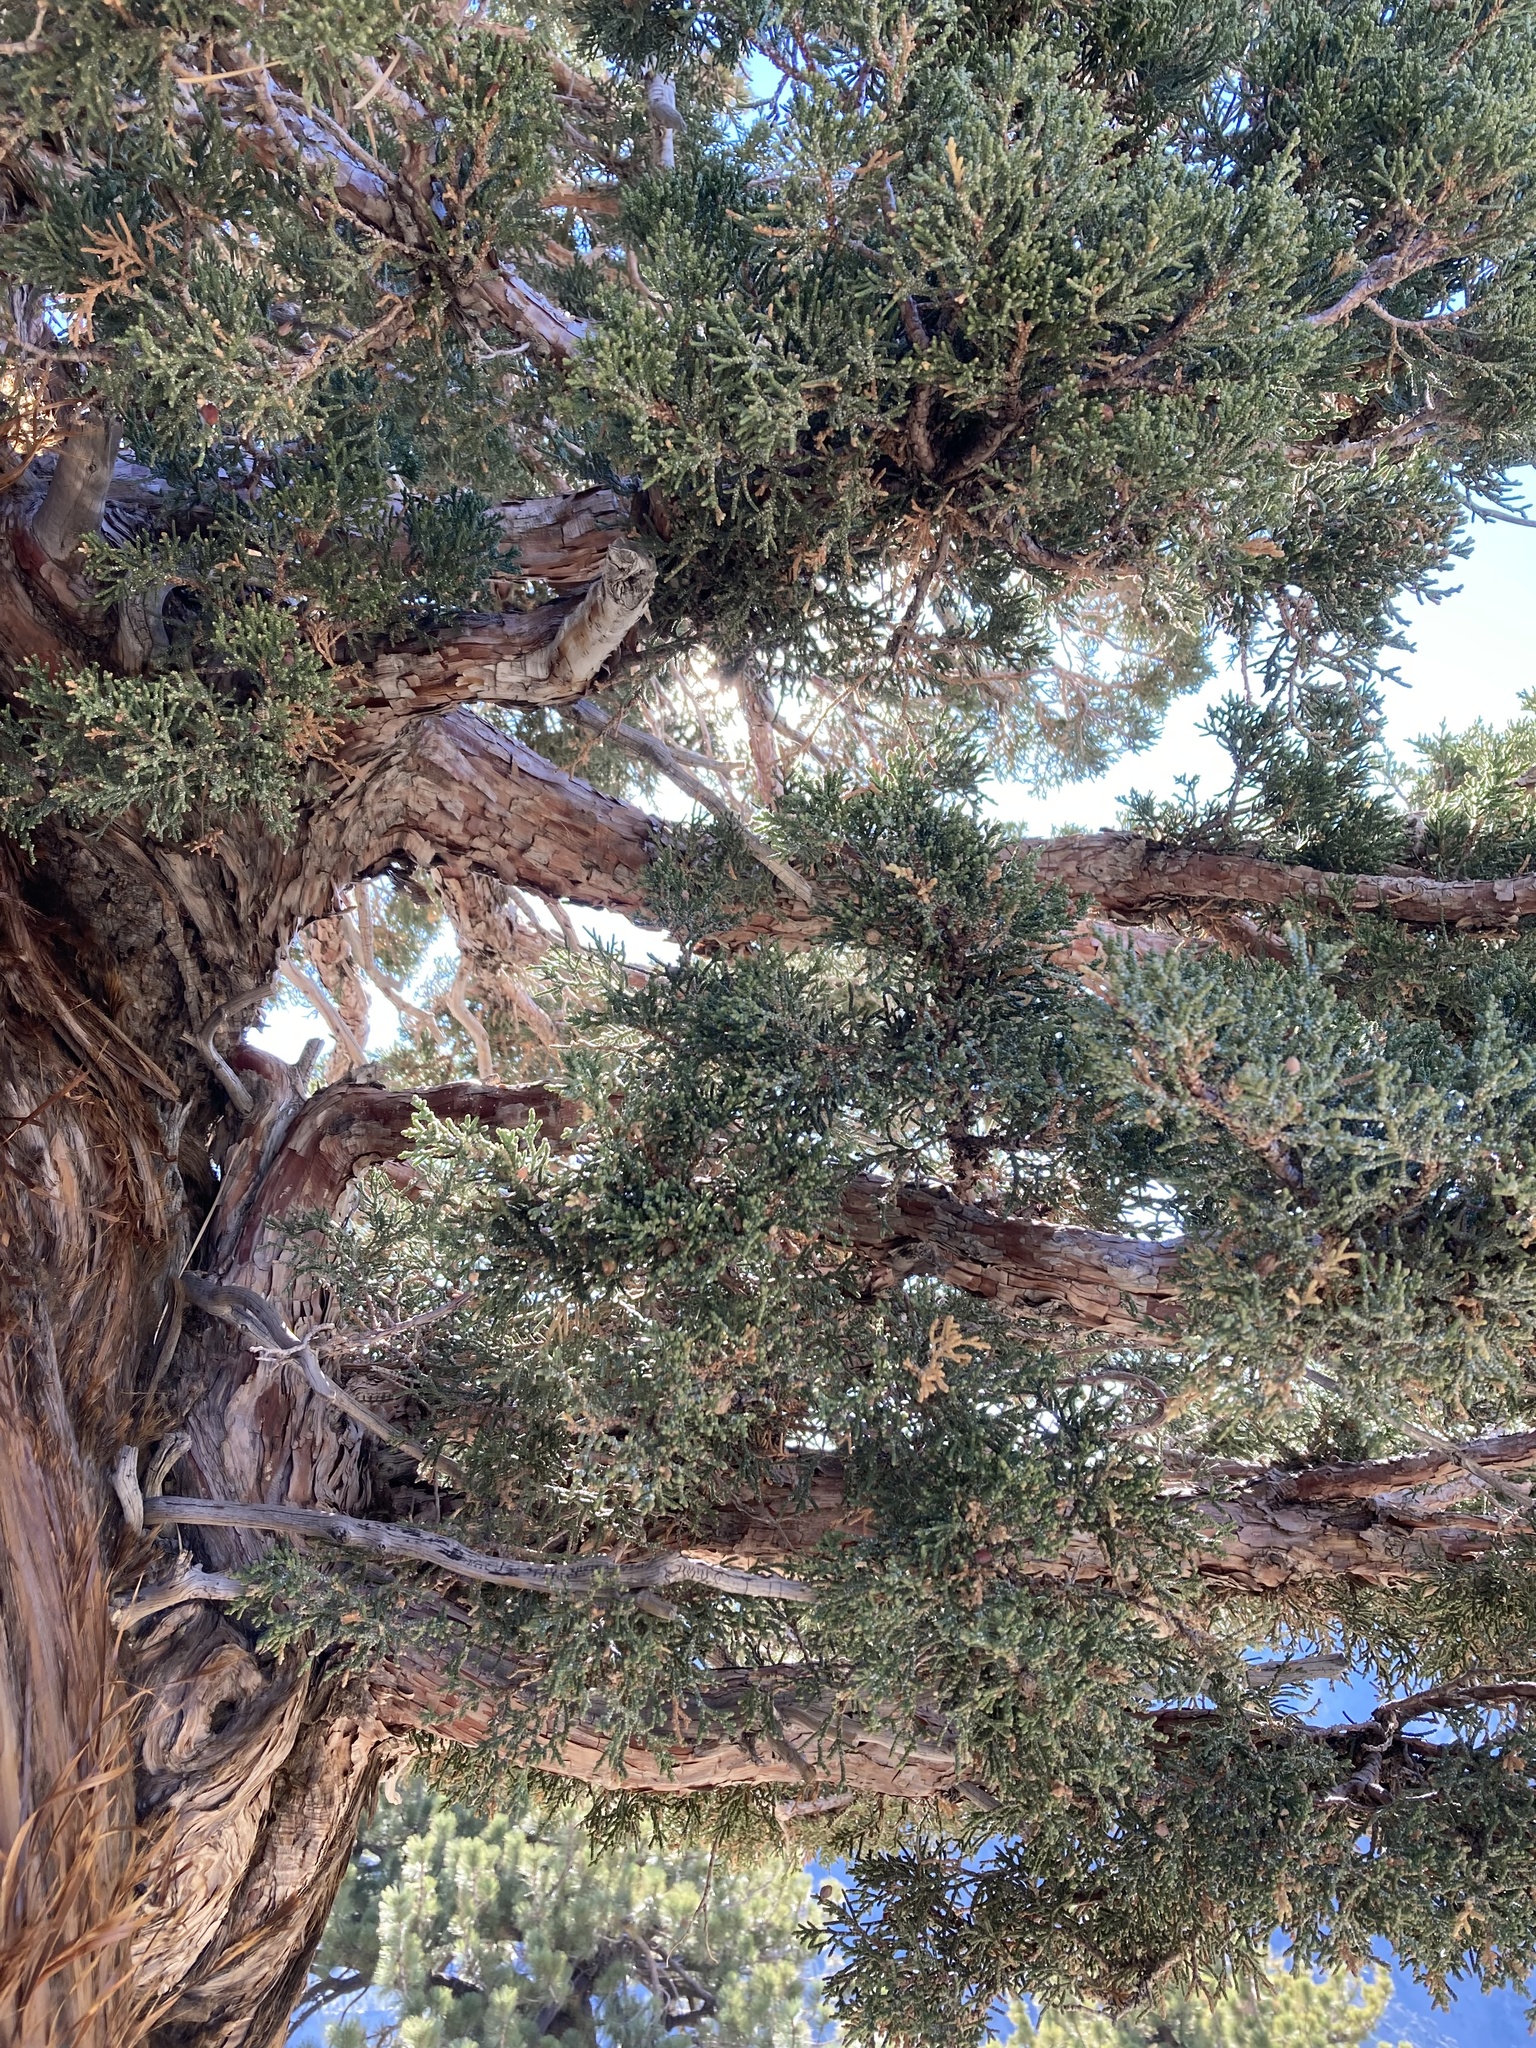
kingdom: Plantae
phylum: Tracheophyta
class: Pinopsida
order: Pinales
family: Cupressaceae
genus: Juniperus
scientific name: Juniperus occidentalis
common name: Western juniper
